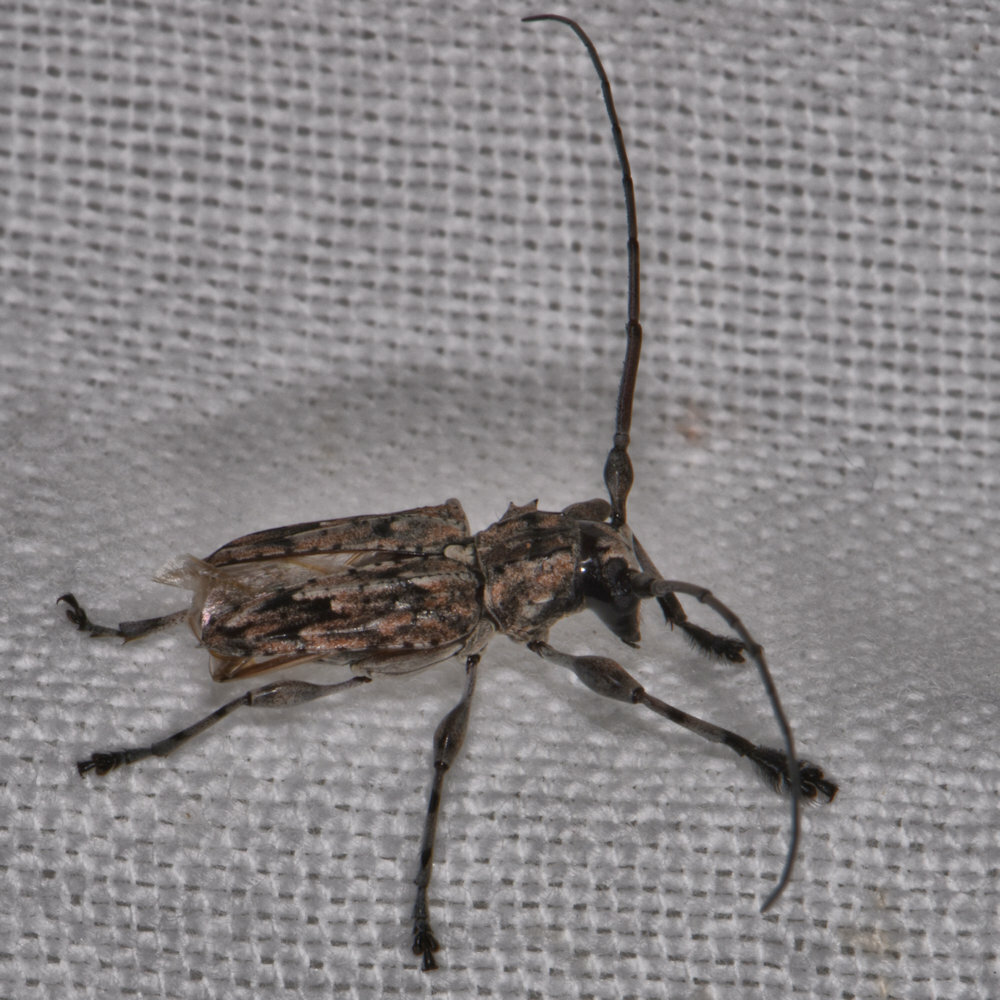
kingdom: Animalia
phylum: Arthropoda
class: Insecta
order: Coleoptera
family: Cerambycidae
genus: Steirastoma
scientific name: Steirastoma lituratum
